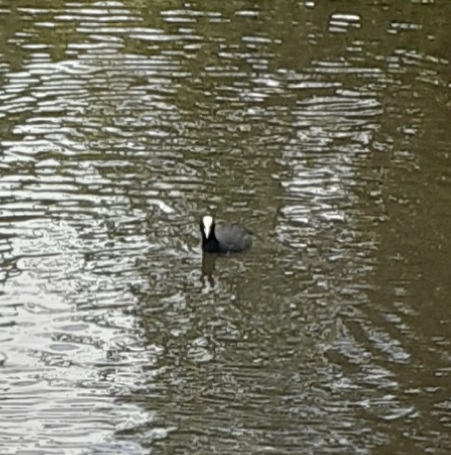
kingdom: Animalia
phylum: Chordata
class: Aves
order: Gruiformes
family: Rallidae
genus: Fulica
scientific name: Fulica atra
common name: Eurasian coot
